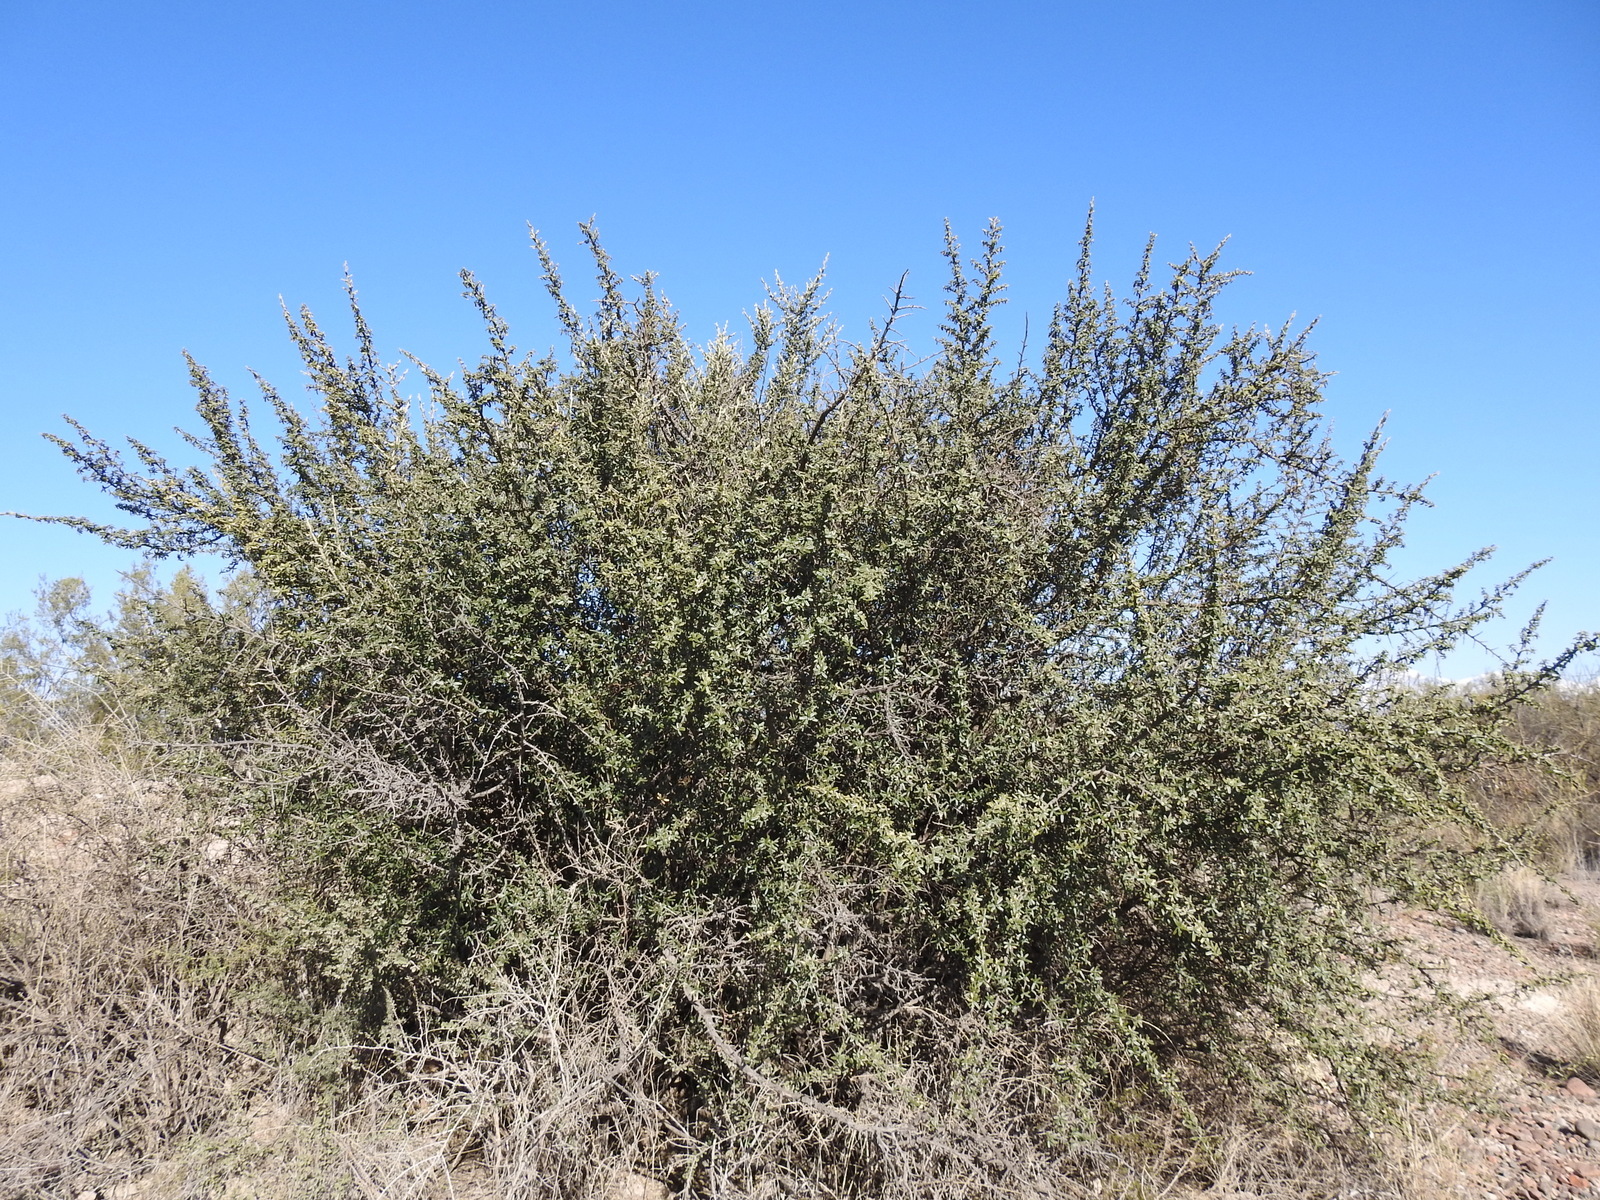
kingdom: Plantae
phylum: Tracheophyta
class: Magnoliopsida
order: Brassicales
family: Capparaceae
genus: Atamisquea
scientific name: Atamisquea emarginata
